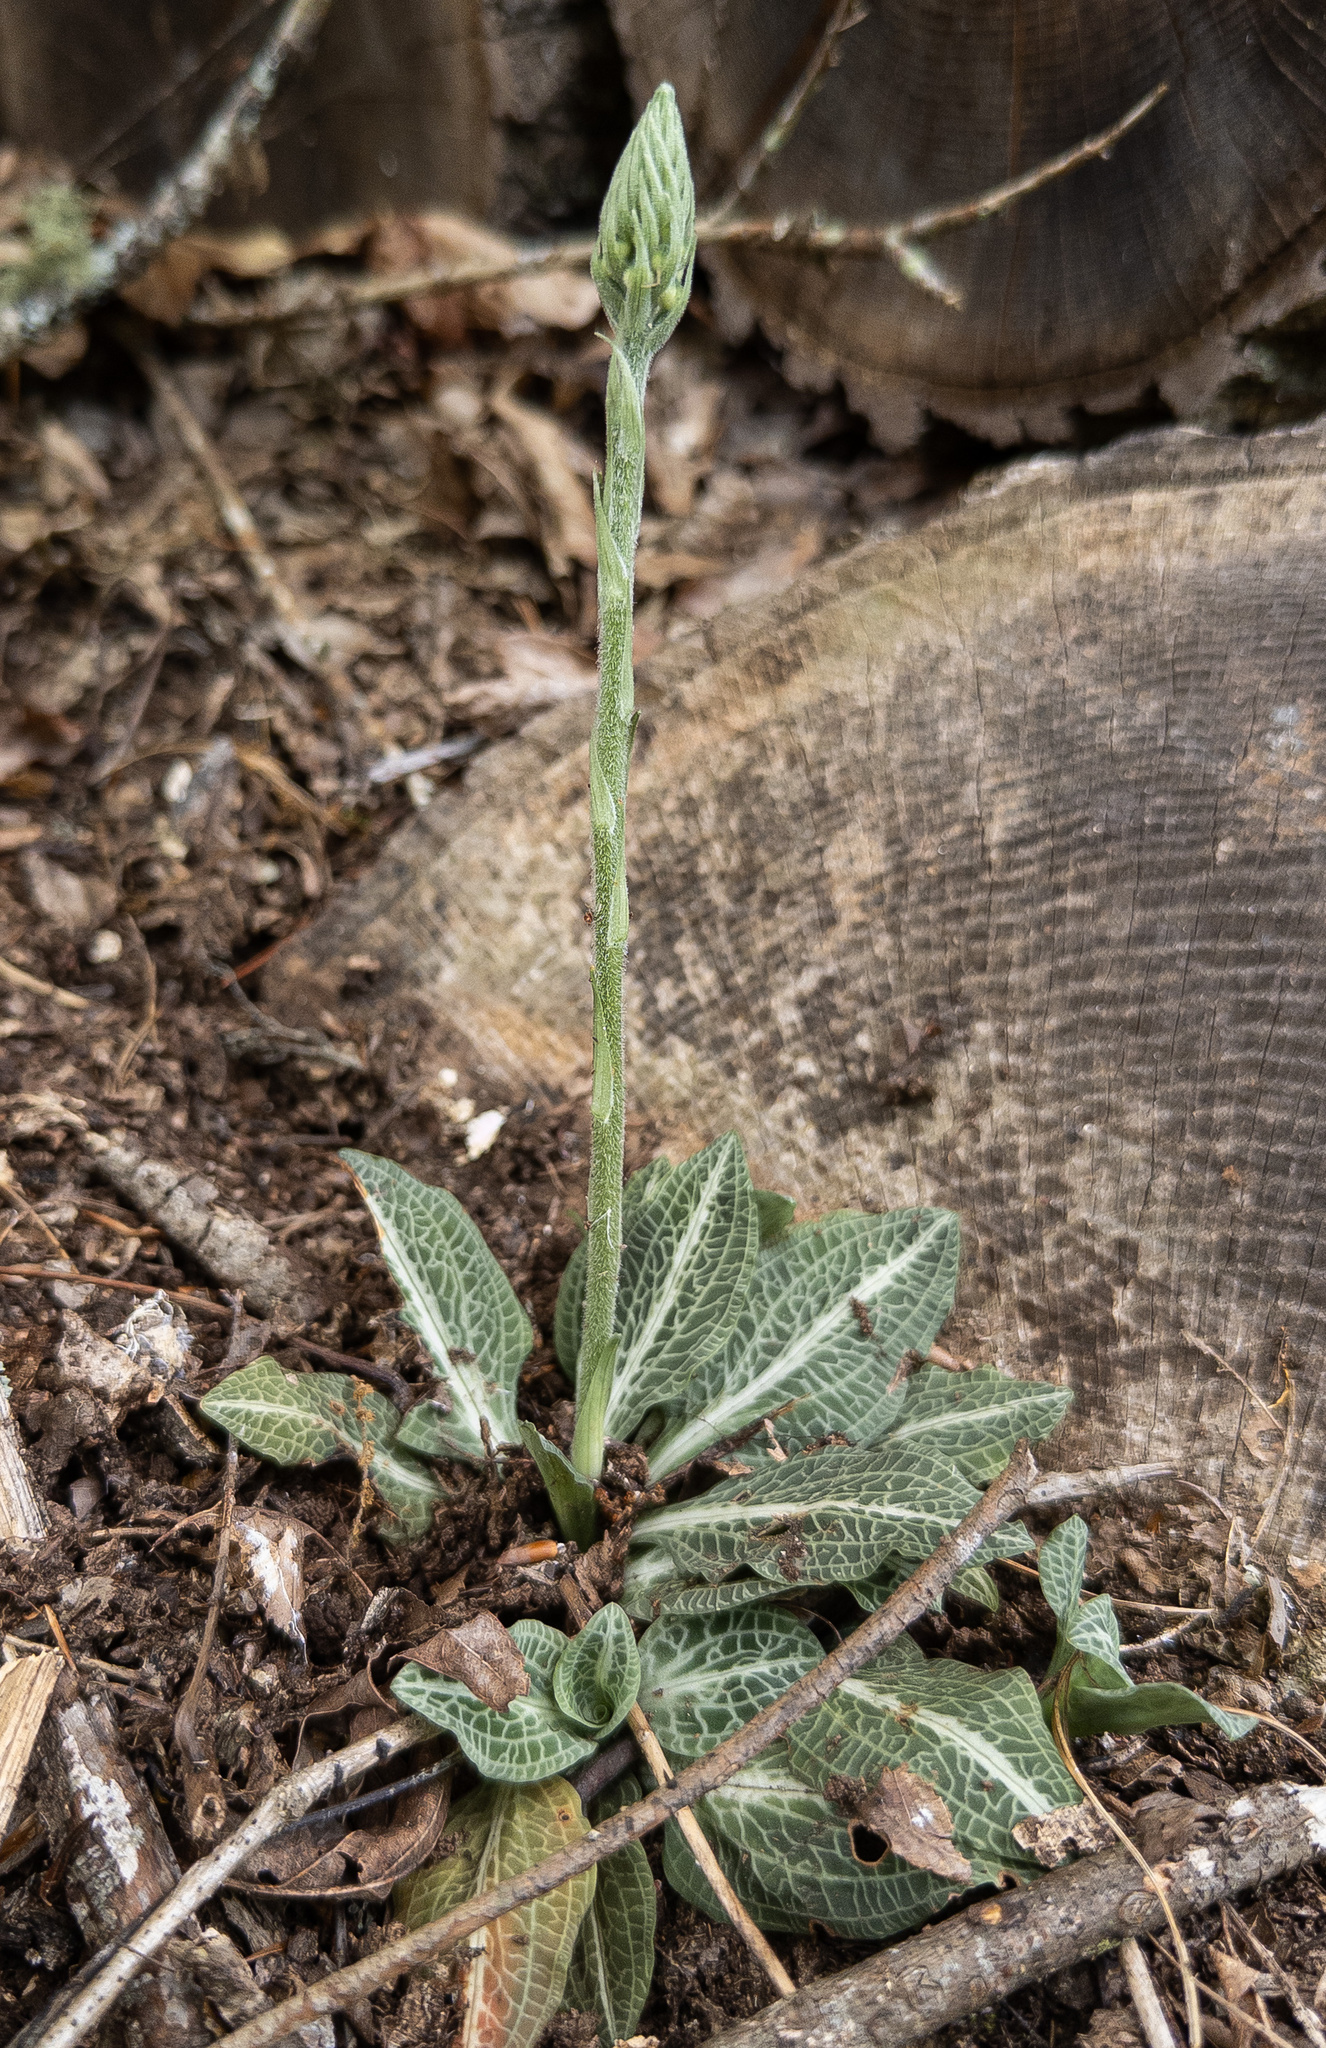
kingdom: Plantae
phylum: Tracheophyta
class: Liliopsida
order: Asparagales
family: Orchidaceae
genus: Goodyera
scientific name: Goodyera pubescens
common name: Downy rattlesnake-plantain
